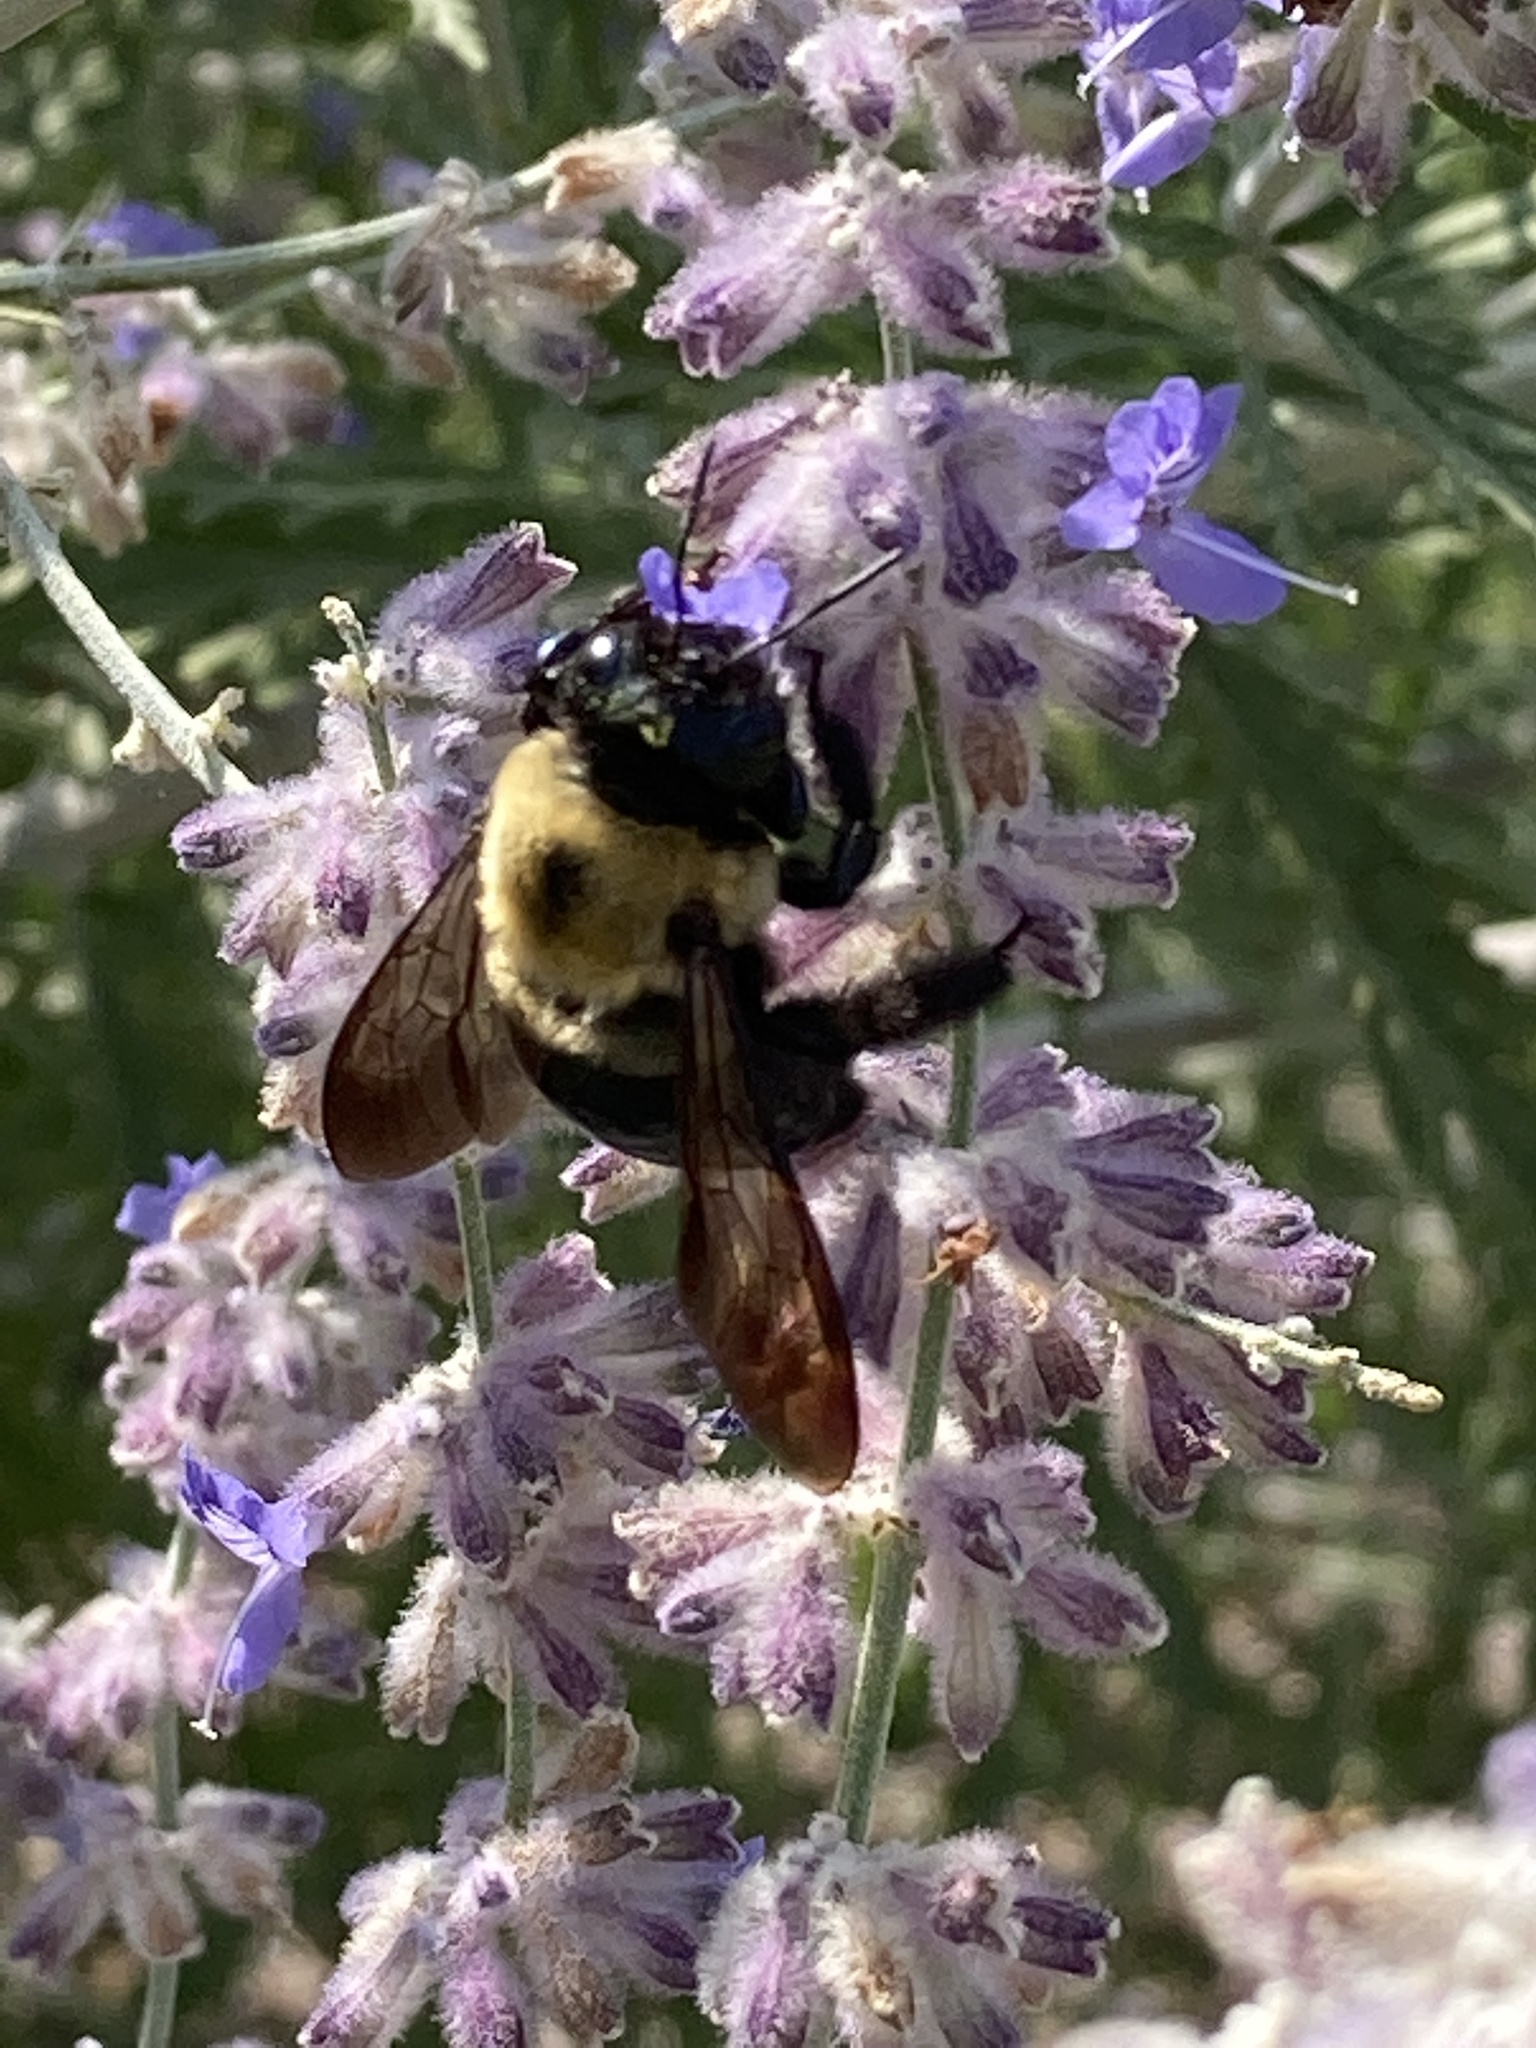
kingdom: Animalia
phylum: Arthropoda
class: Insecta
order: Hymenoptera
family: Apidae
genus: Xylocopa
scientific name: Xylocopa virginica
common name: Carpenter bee
